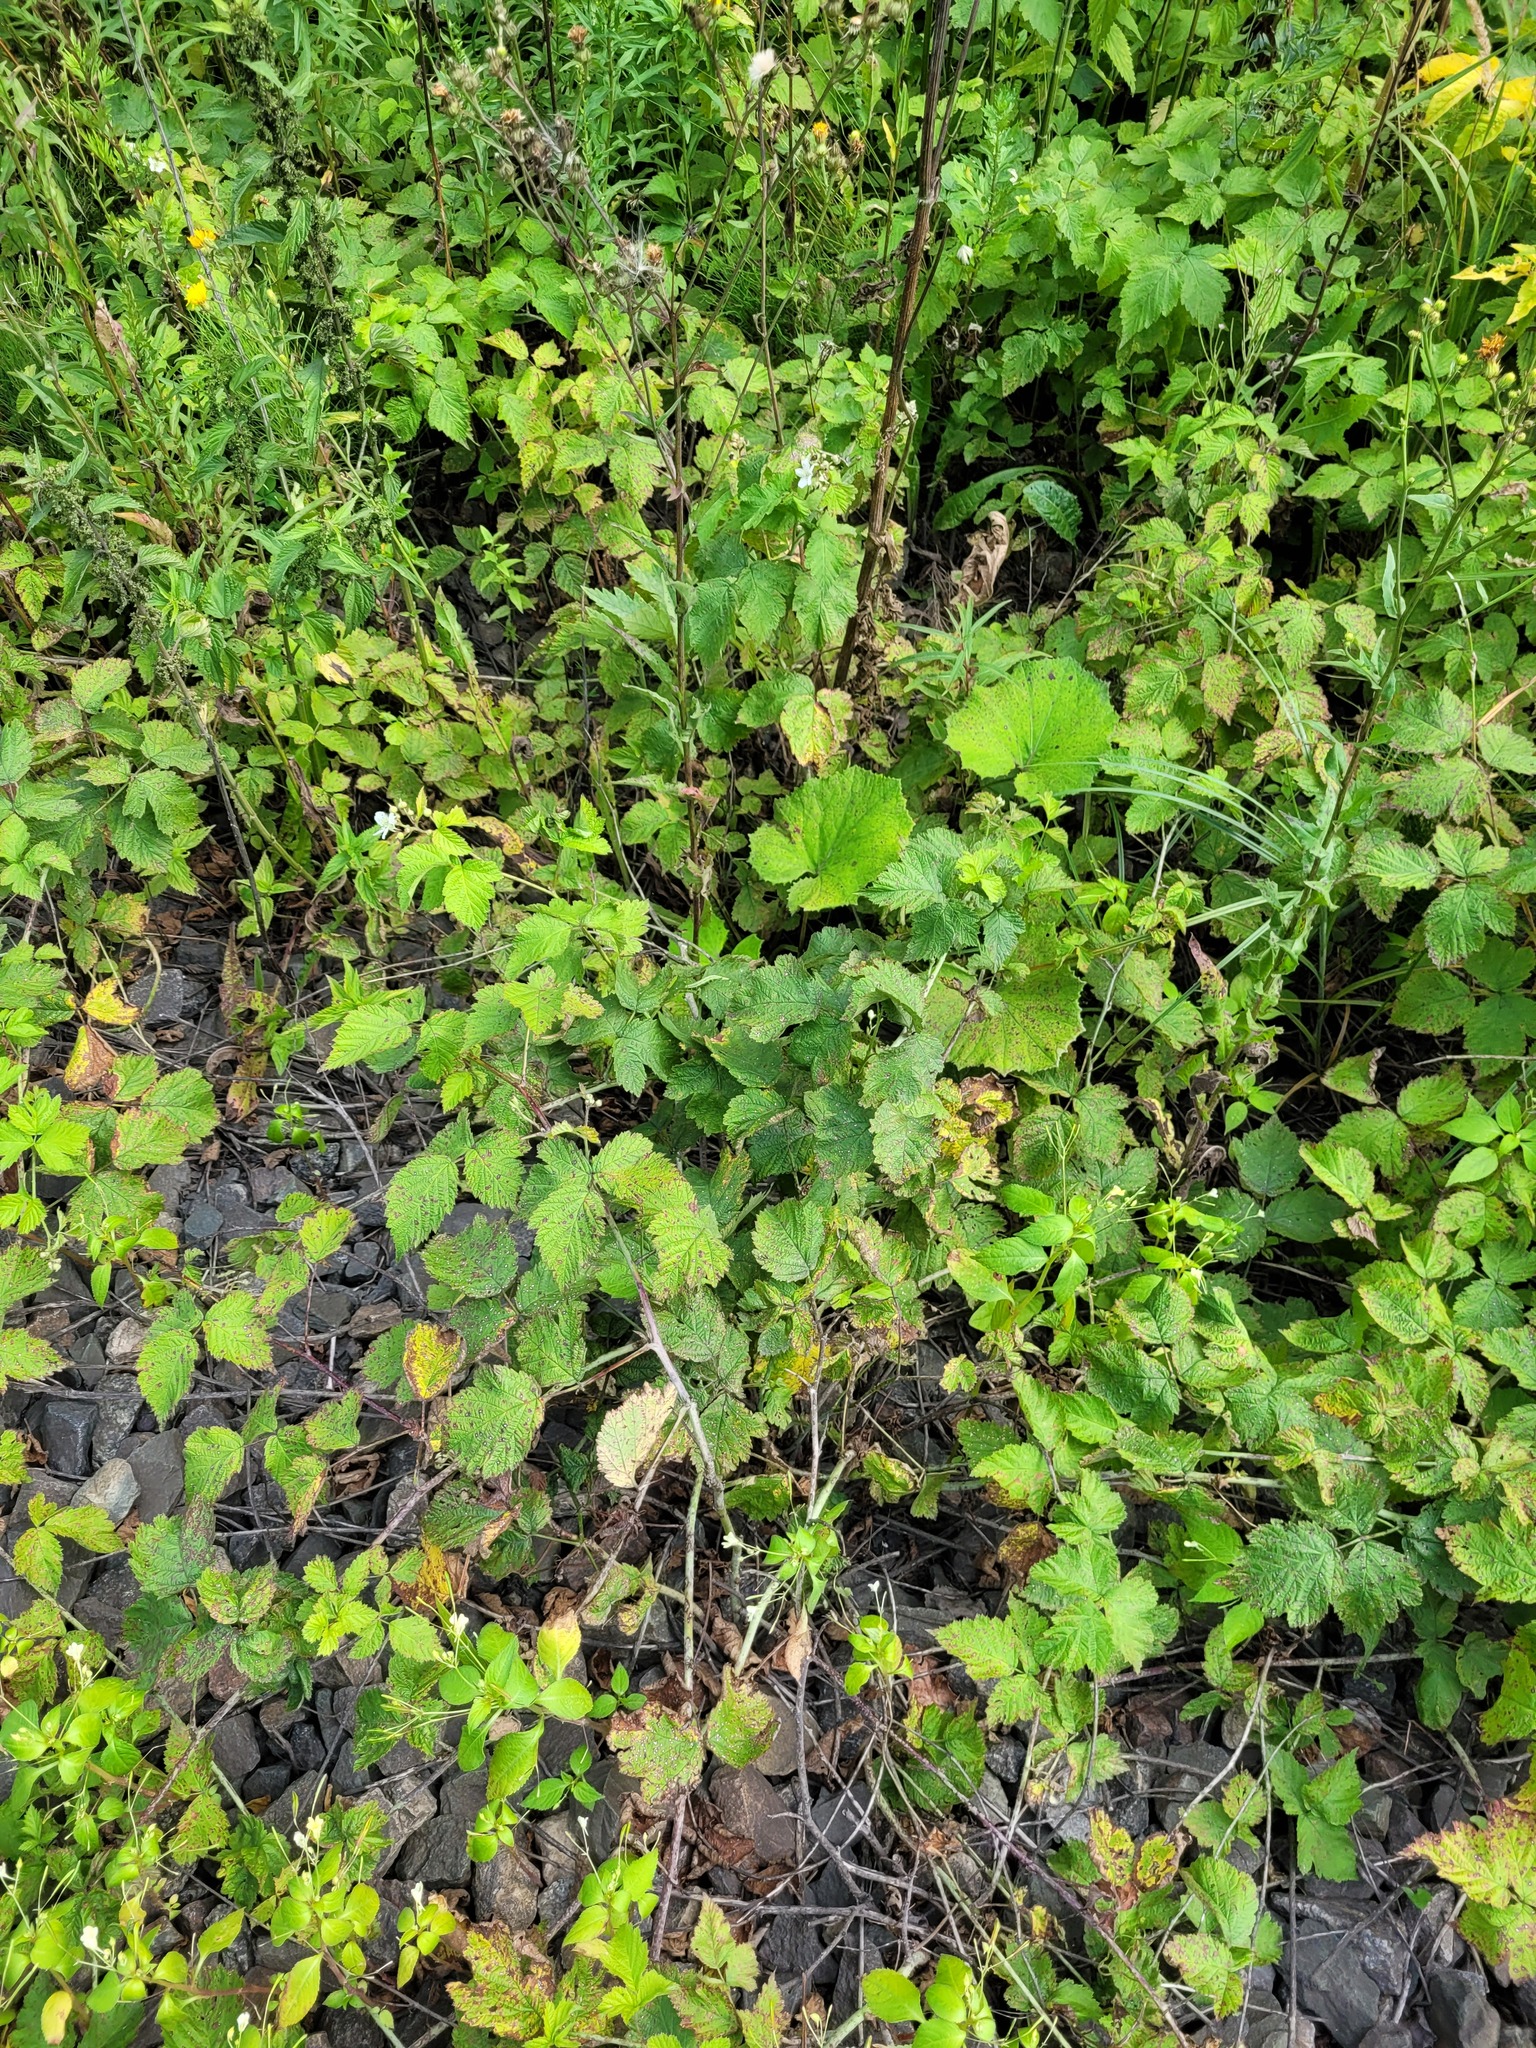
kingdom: Plantae
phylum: Tracheophyta
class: Magnoliopsida
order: Rosales
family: Rosaceae
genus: Rubus
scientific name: Rubus caesius
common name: Dewberry
